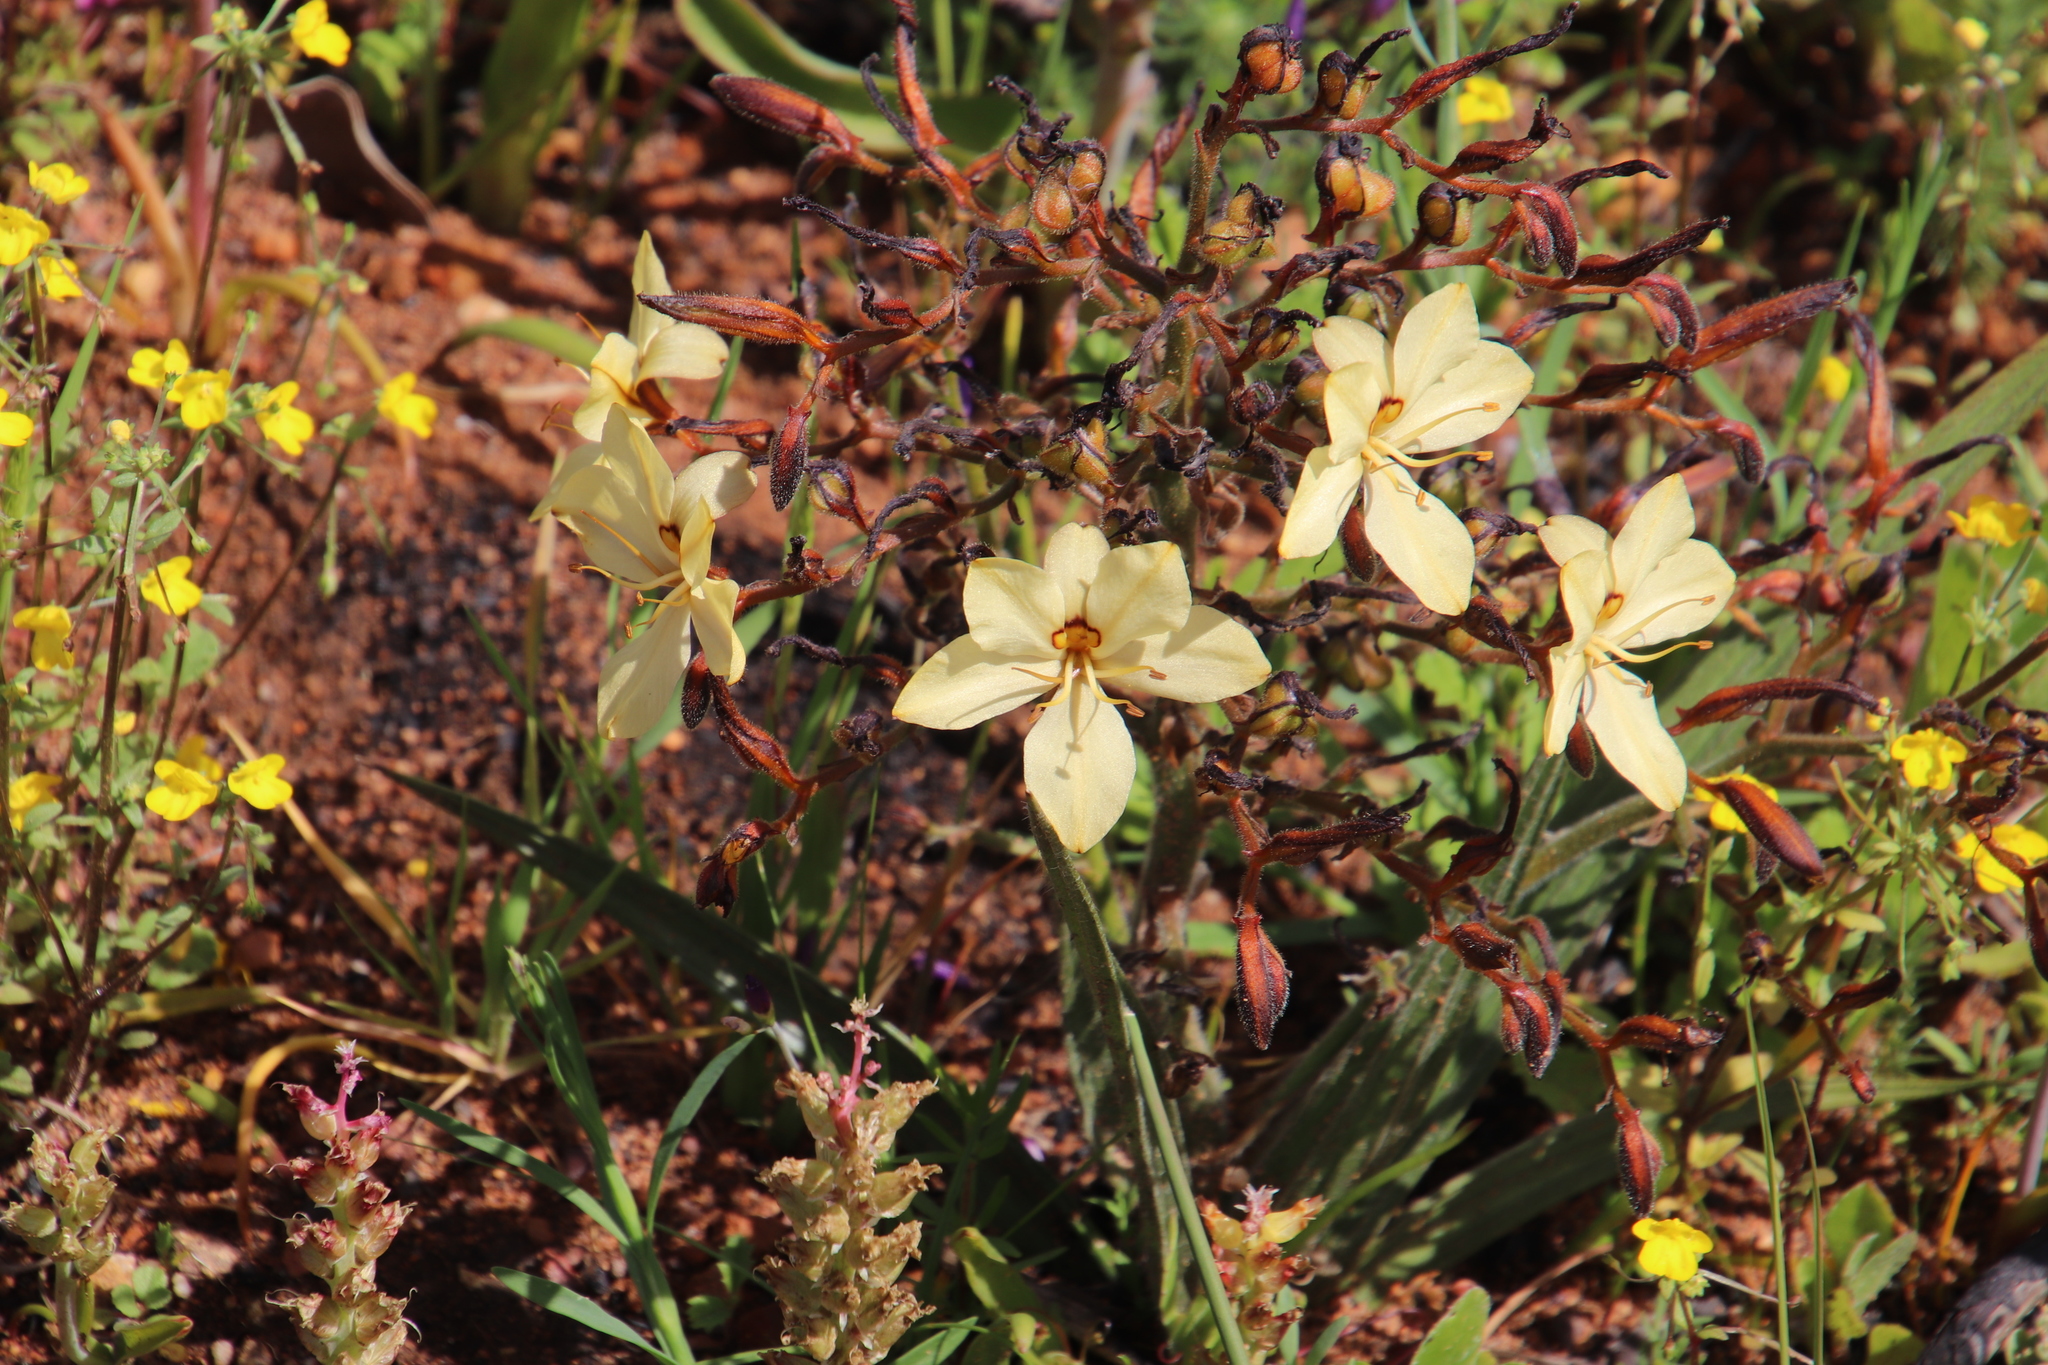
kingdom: Plantae
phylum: Tracheophyta
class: Liliopsida
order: Commelinales
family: Haemodoraceae
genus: Wachendorfia
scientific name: Wachendorfia paniculata
